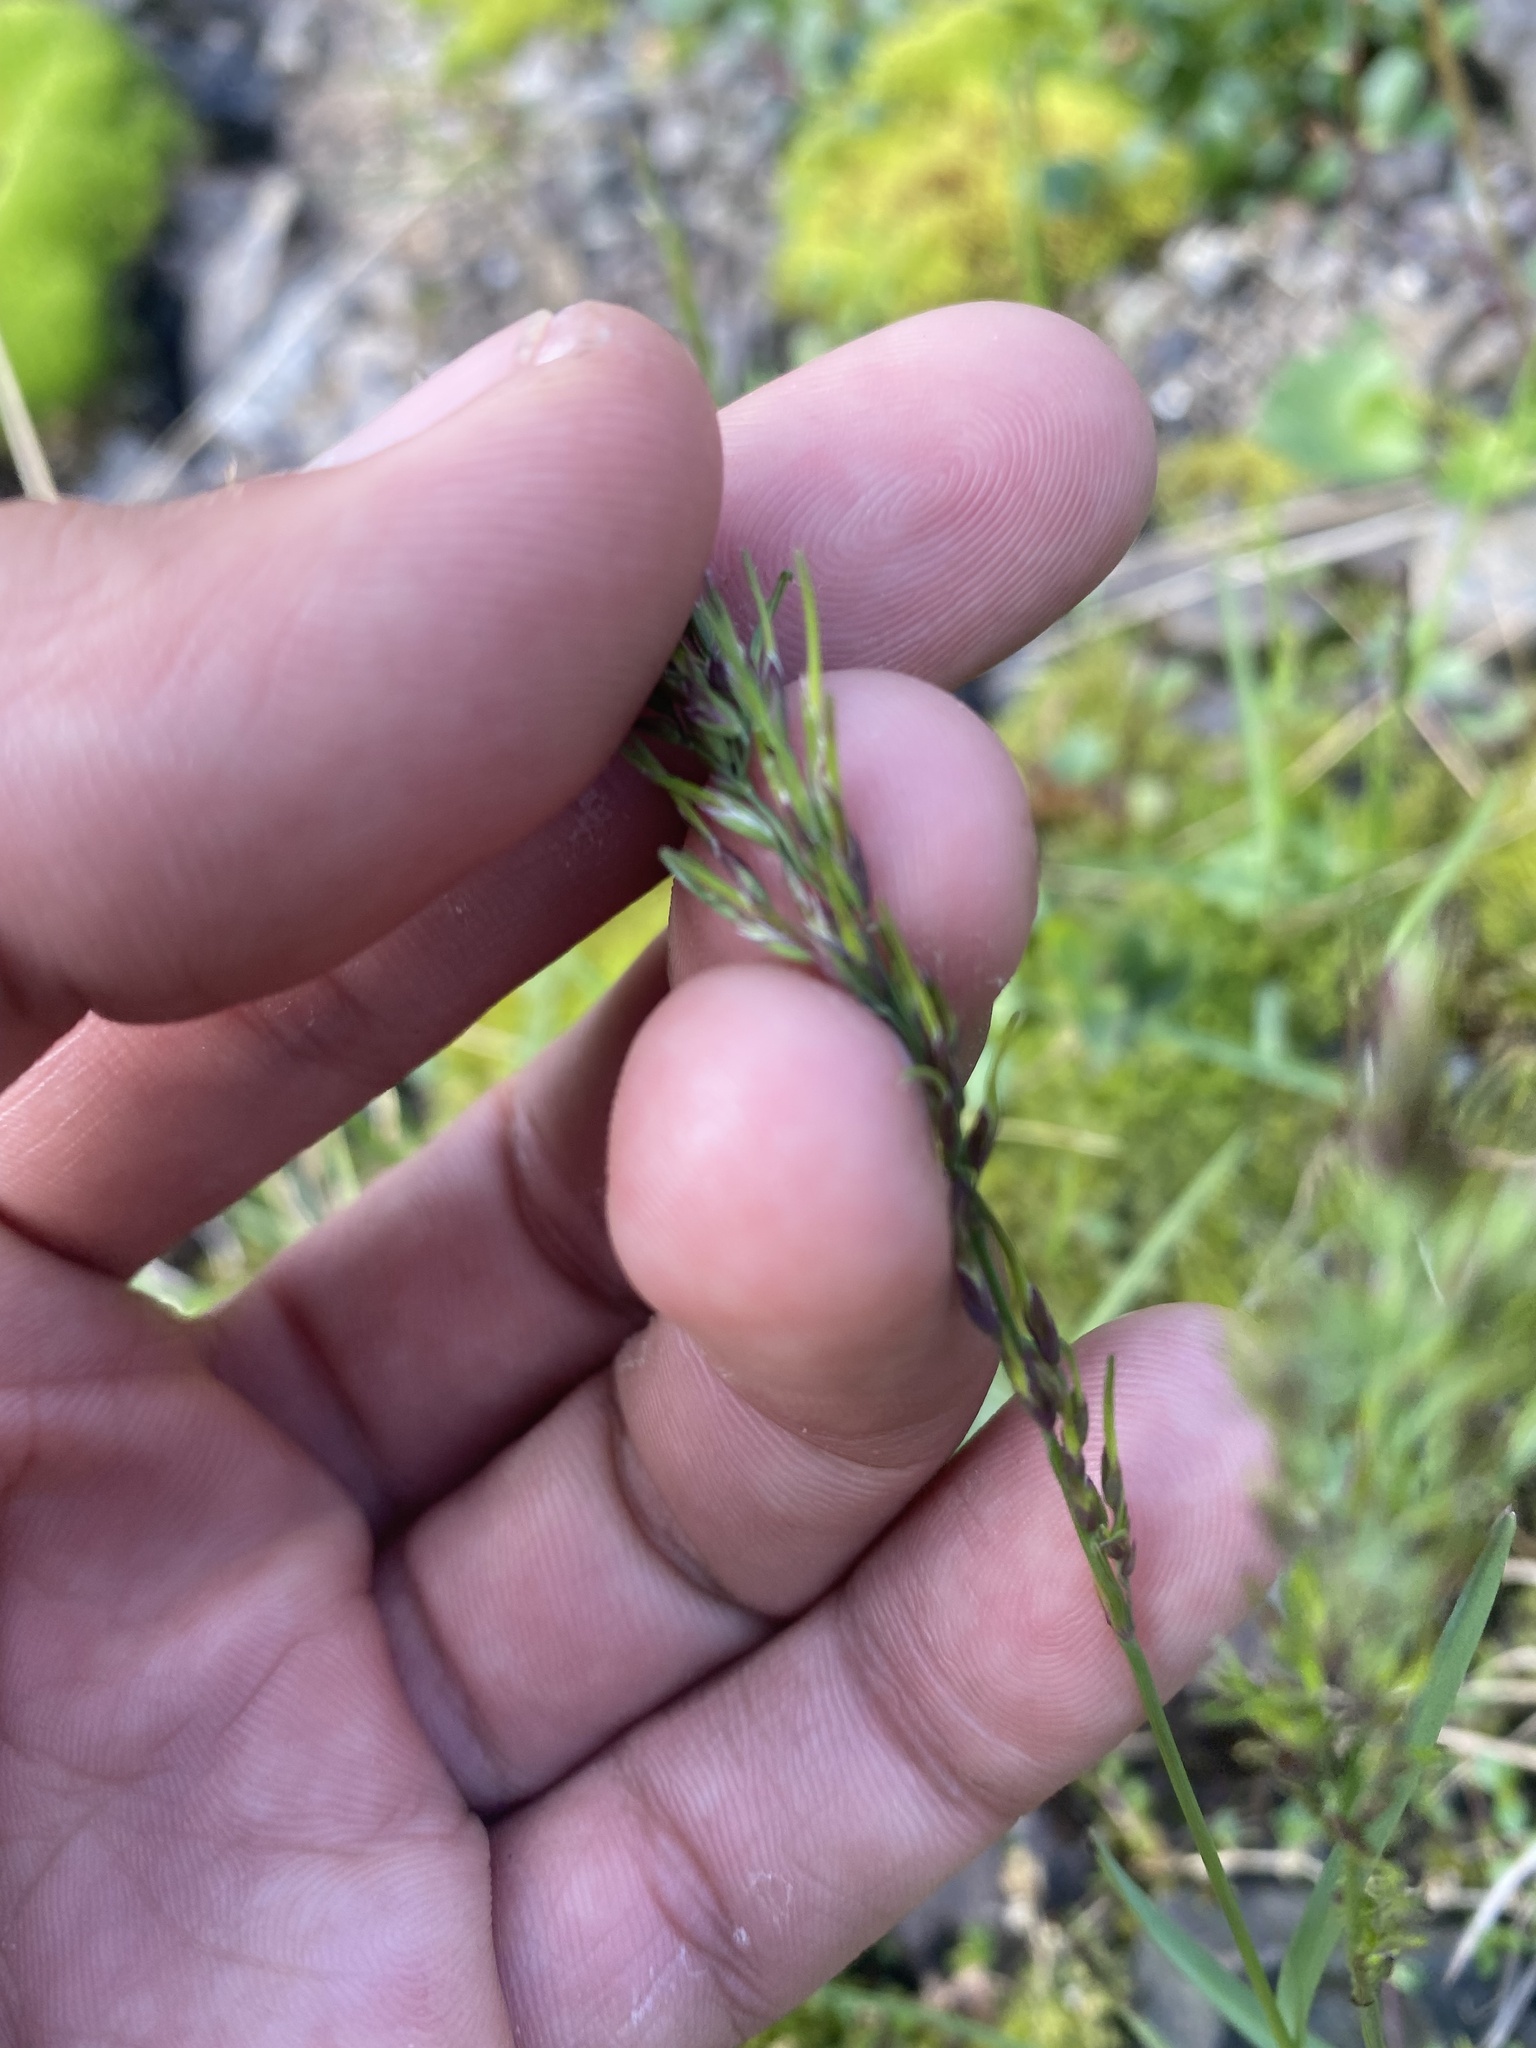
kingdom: Plantae
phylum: Tracheophyta
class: Liliopsida
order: Poales
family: Poaceae
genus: Poa
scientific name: Poa alpigena
